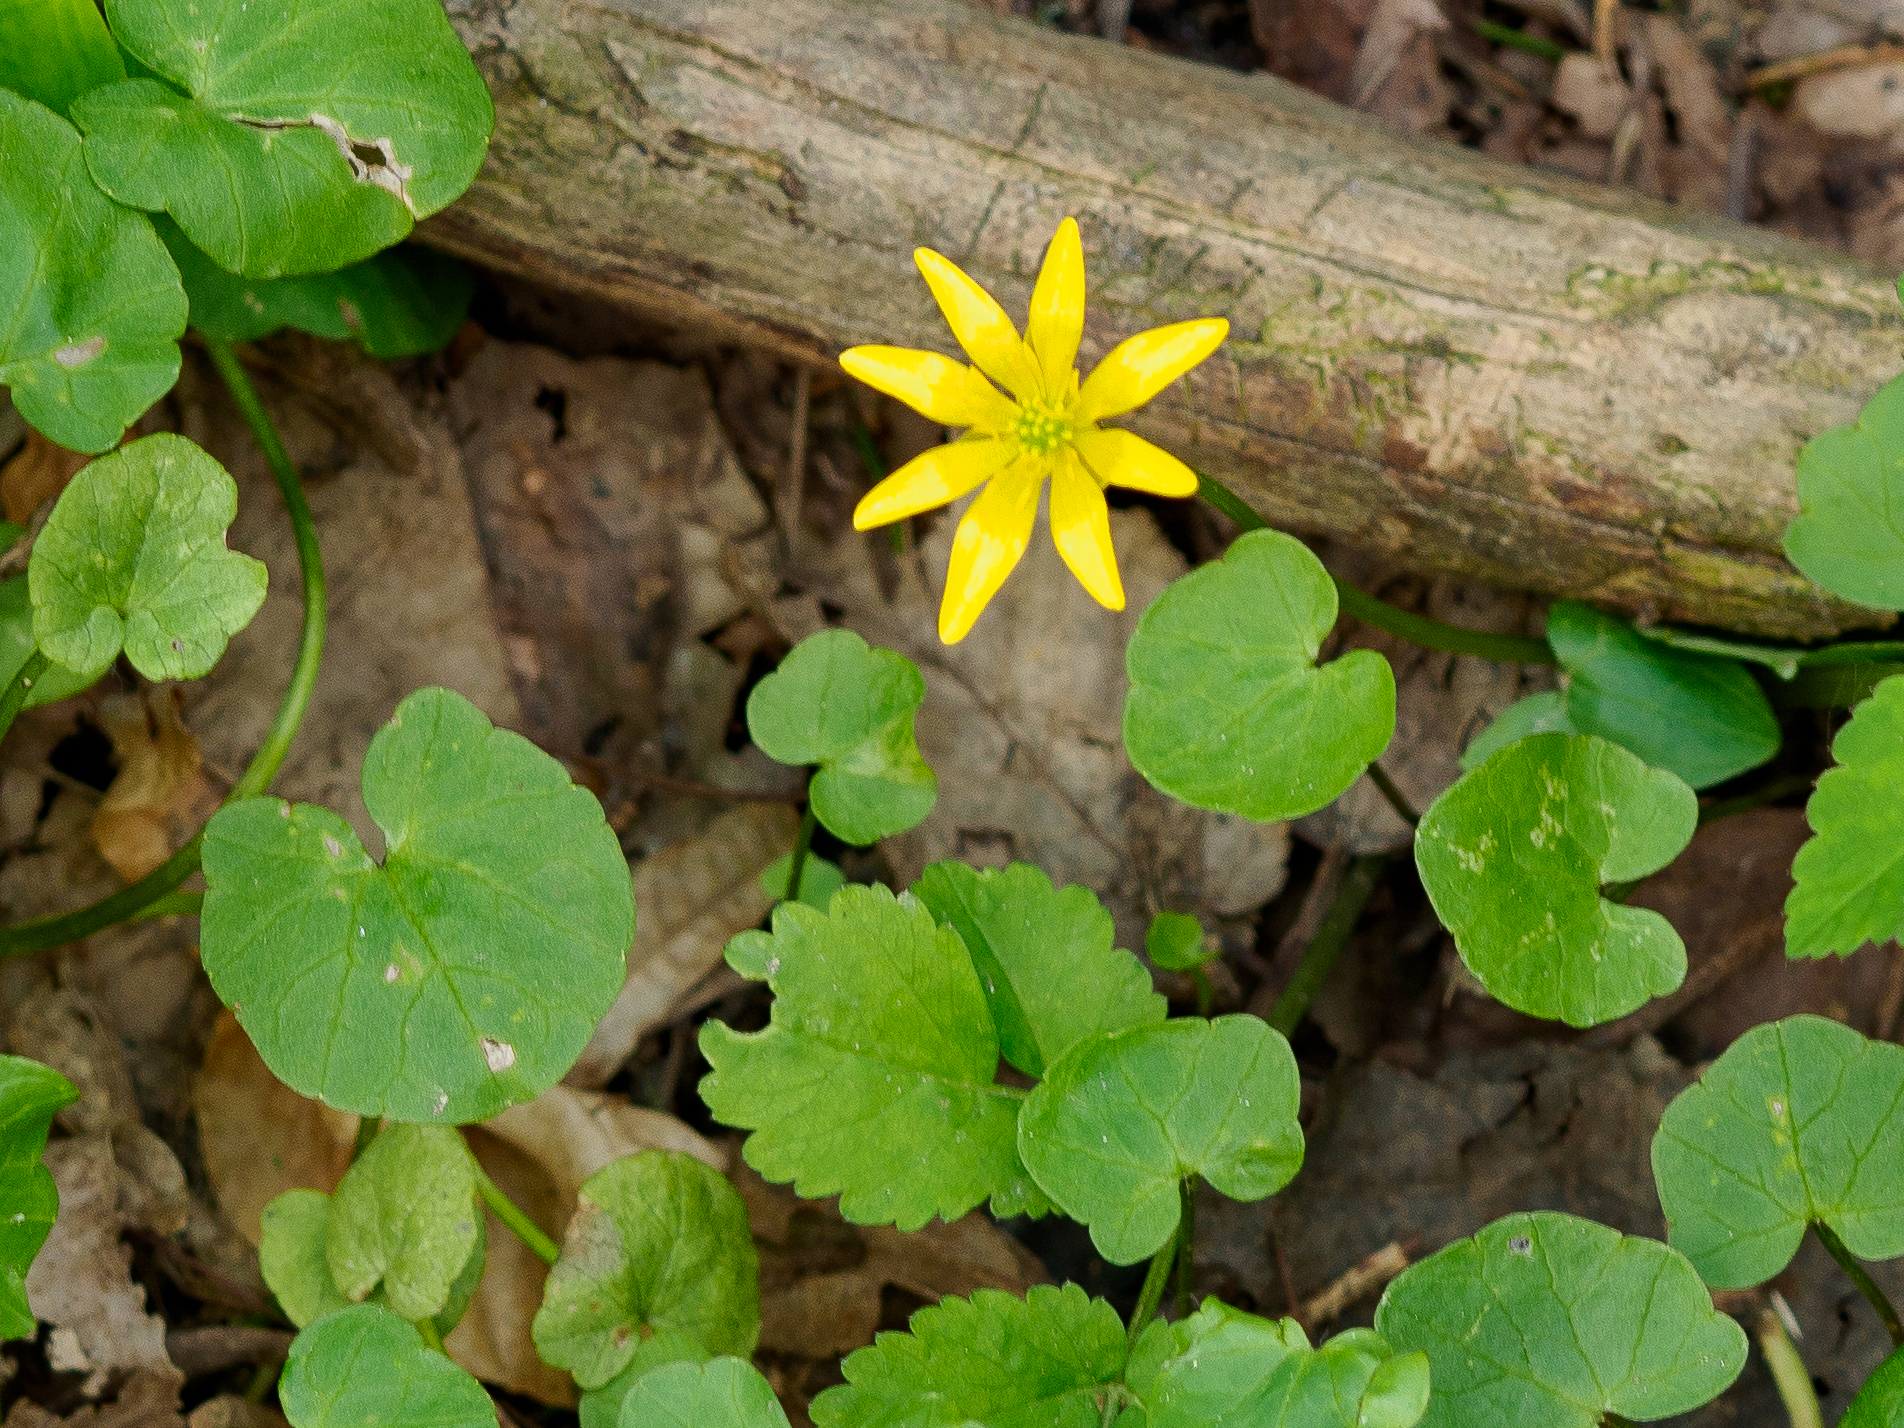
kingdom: Plantae
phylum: Tracheophyta
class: Magnoliopsida
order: Ranunculales
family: Ranunculaceae
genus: Ficaria
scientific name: Ficaria verna
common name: Lesser celandine
